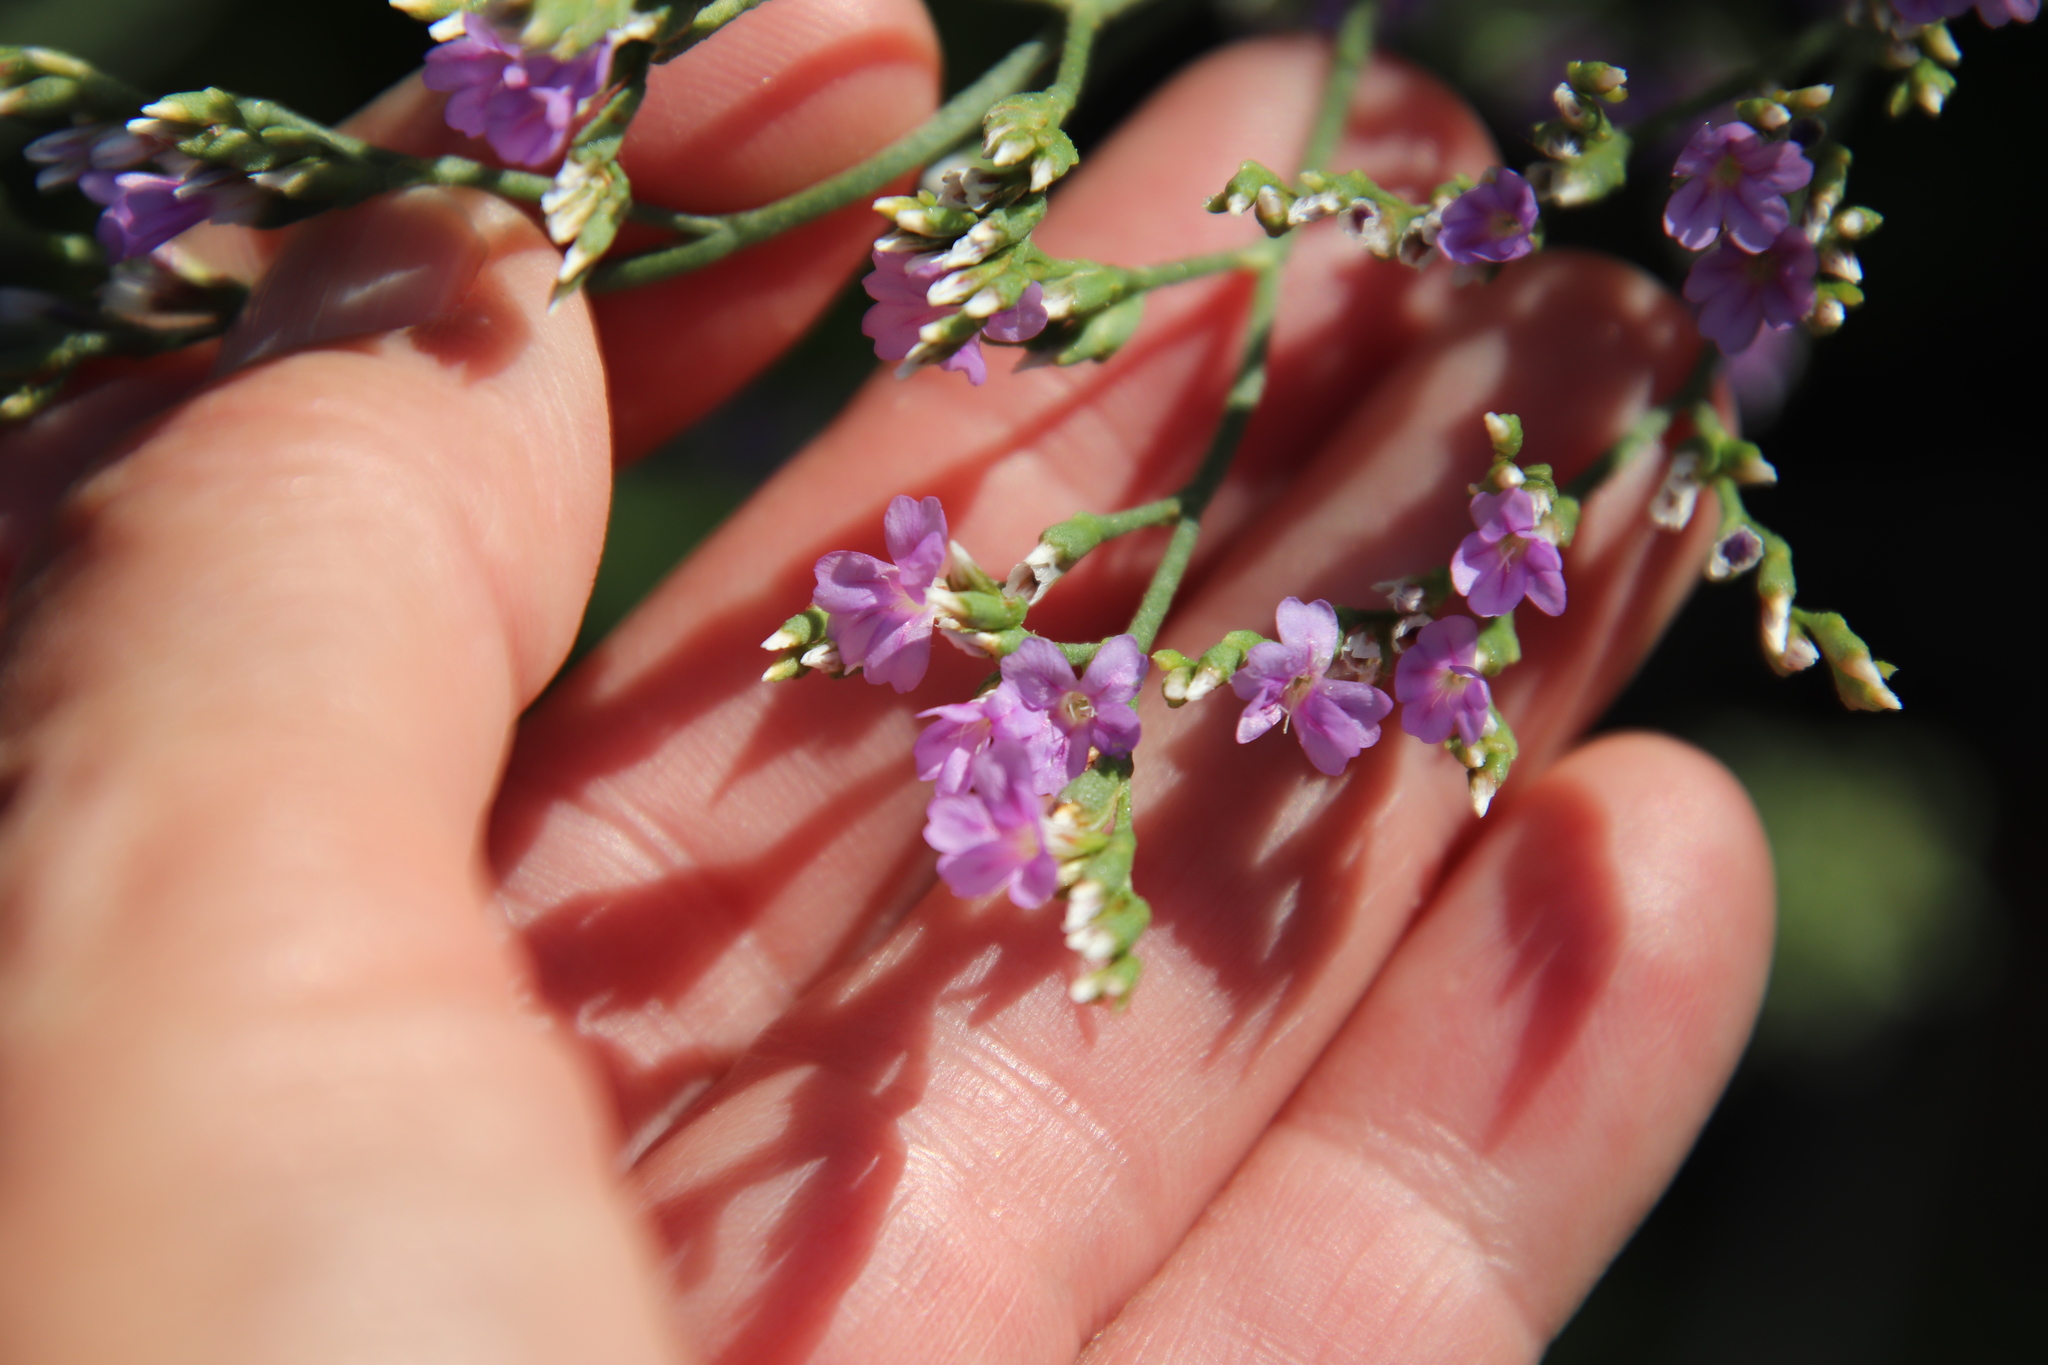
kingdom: Plantae
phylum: Tracheophyta
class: Magnoliopsida
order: Caryophyllales
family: Plumbaginaceae
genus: Limonium
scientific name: Limonium ramosissimum
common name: Algerian sea lavender
